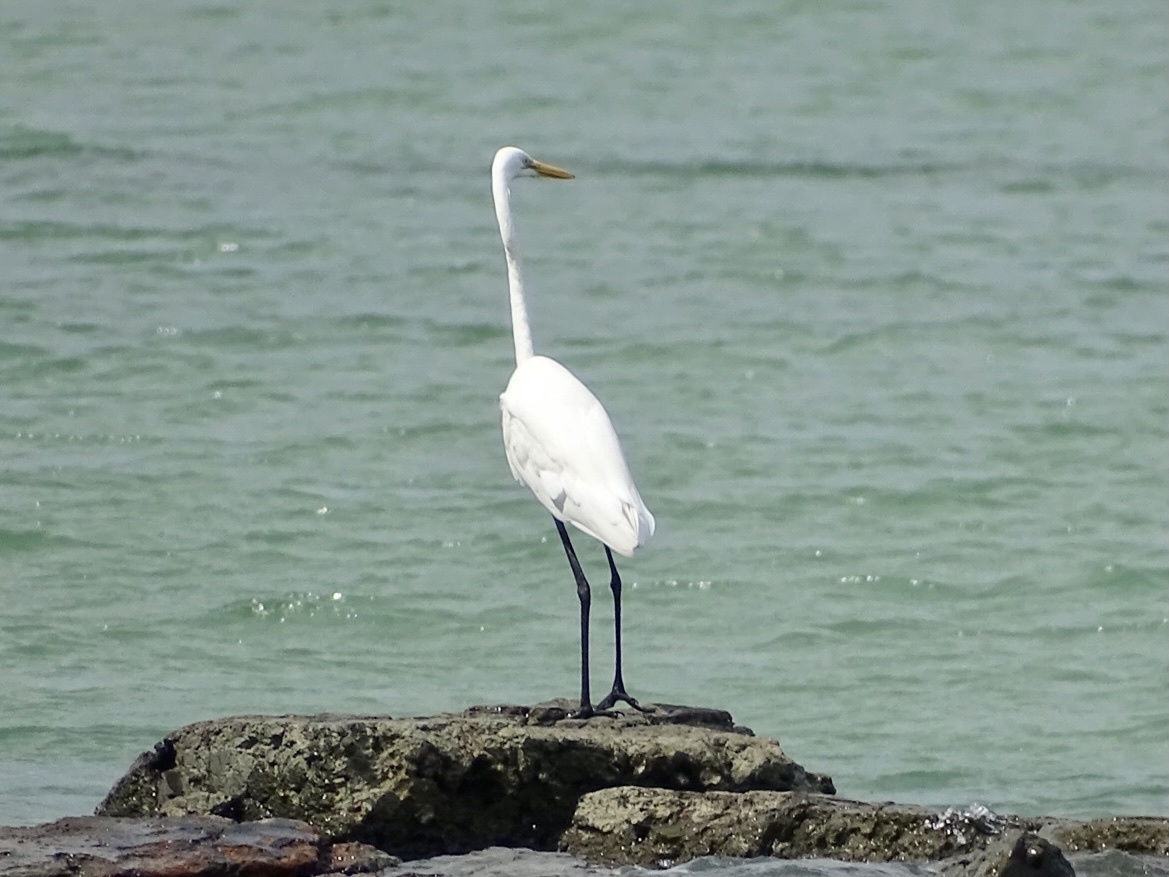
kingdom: Animalia
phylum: Chordata
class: Aves
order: Pelecaniformes
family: Ardeidae
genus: Ardea
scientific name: Ardea alba
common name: Great egret
